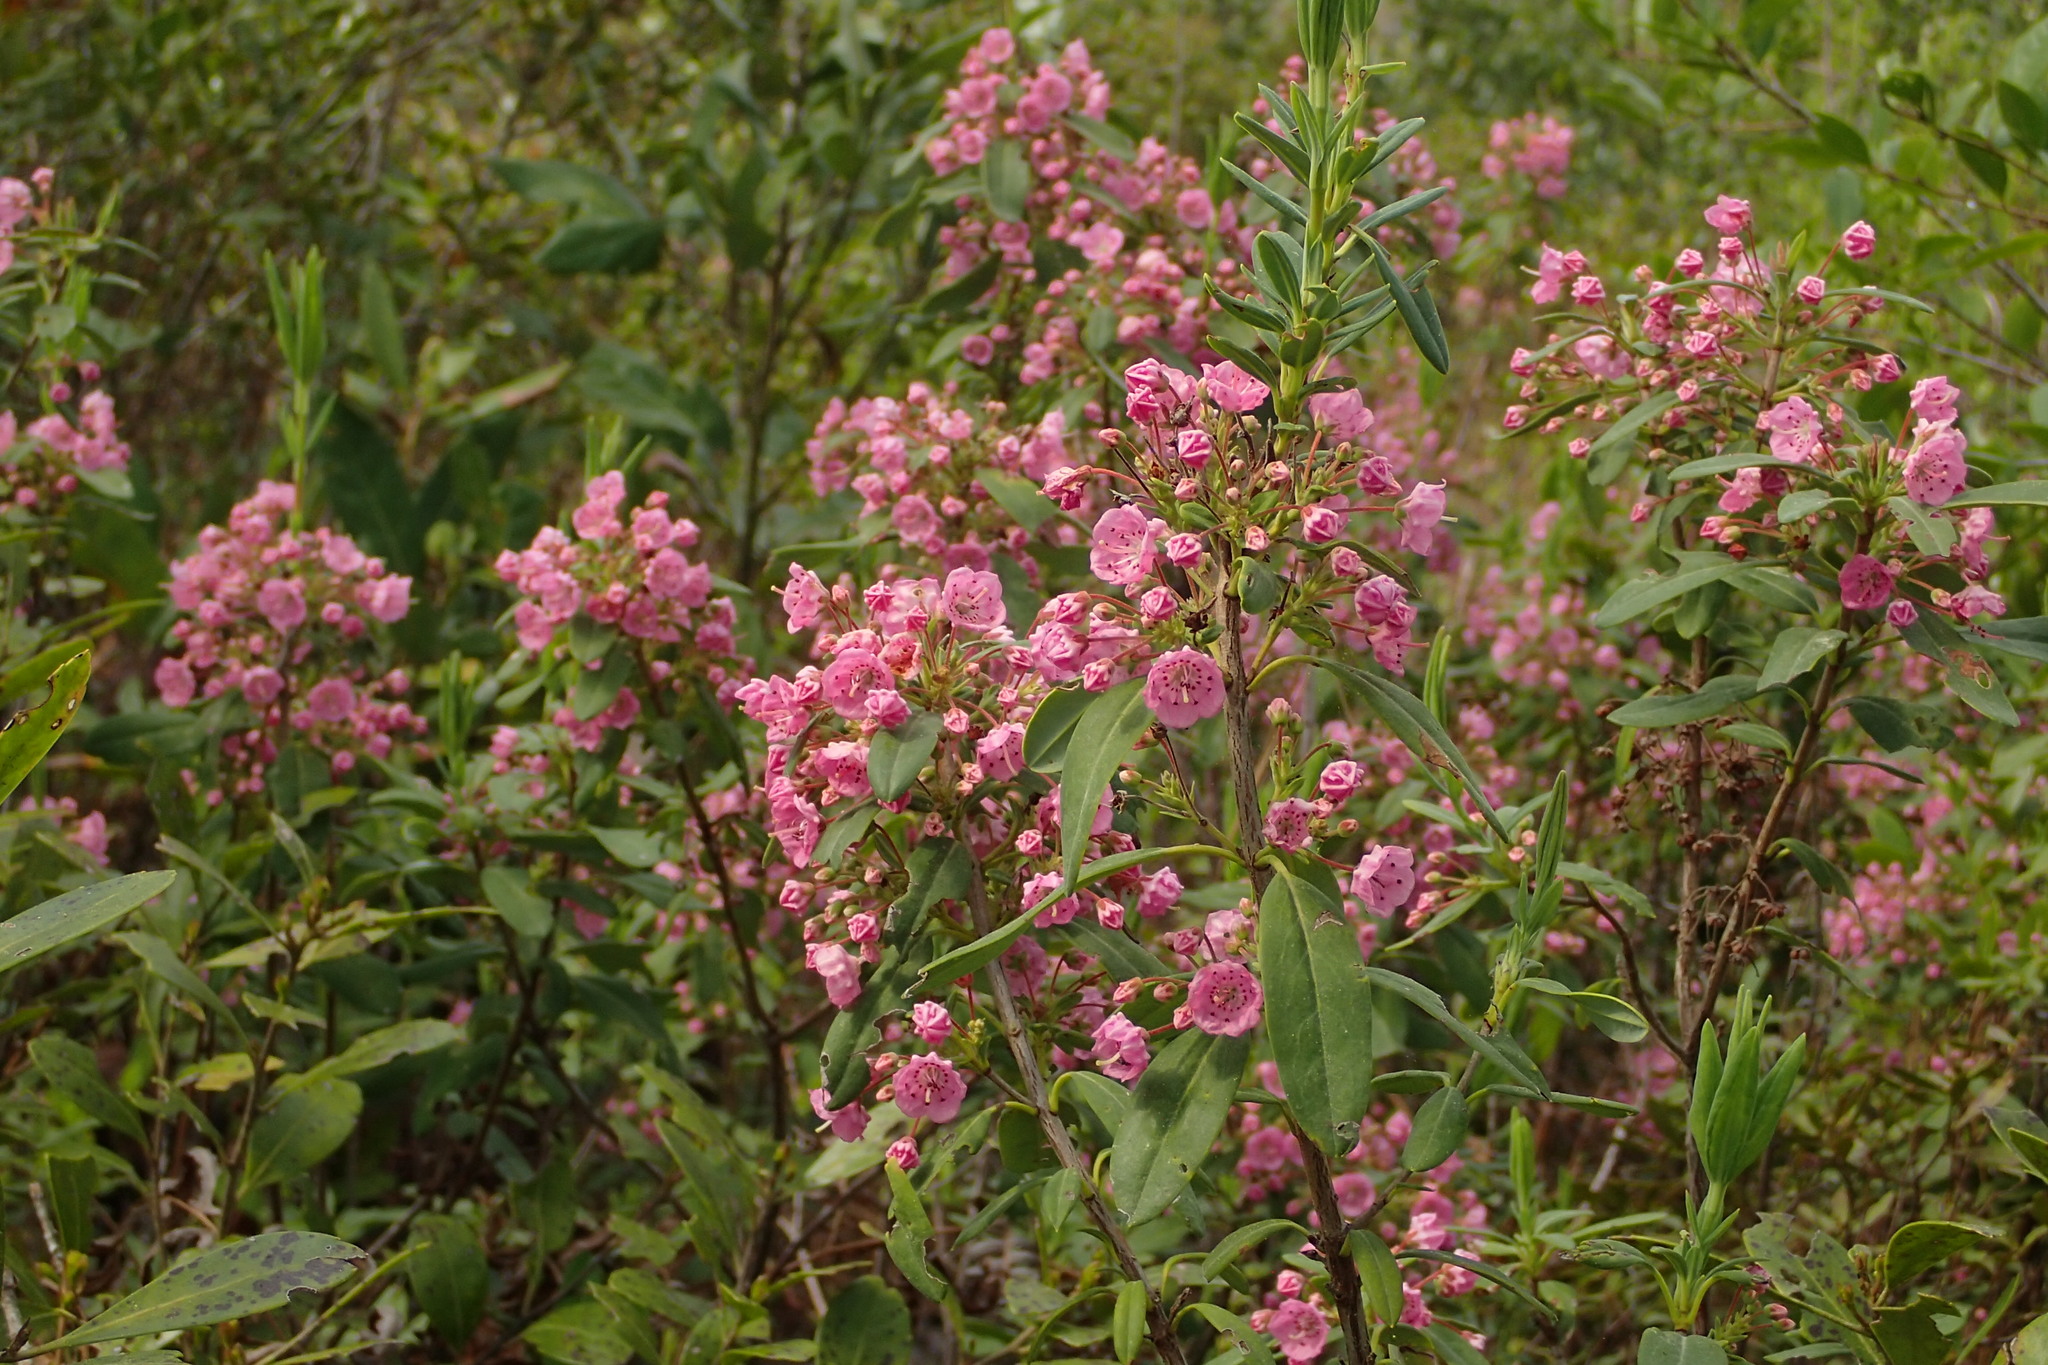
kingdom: Plantae
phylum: Tracheophyta
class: Magnoliopsida
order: Ericales
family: Ericaceae
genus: Kalmia
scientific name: Kalmia angustifolia
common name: Sheep-laurel
